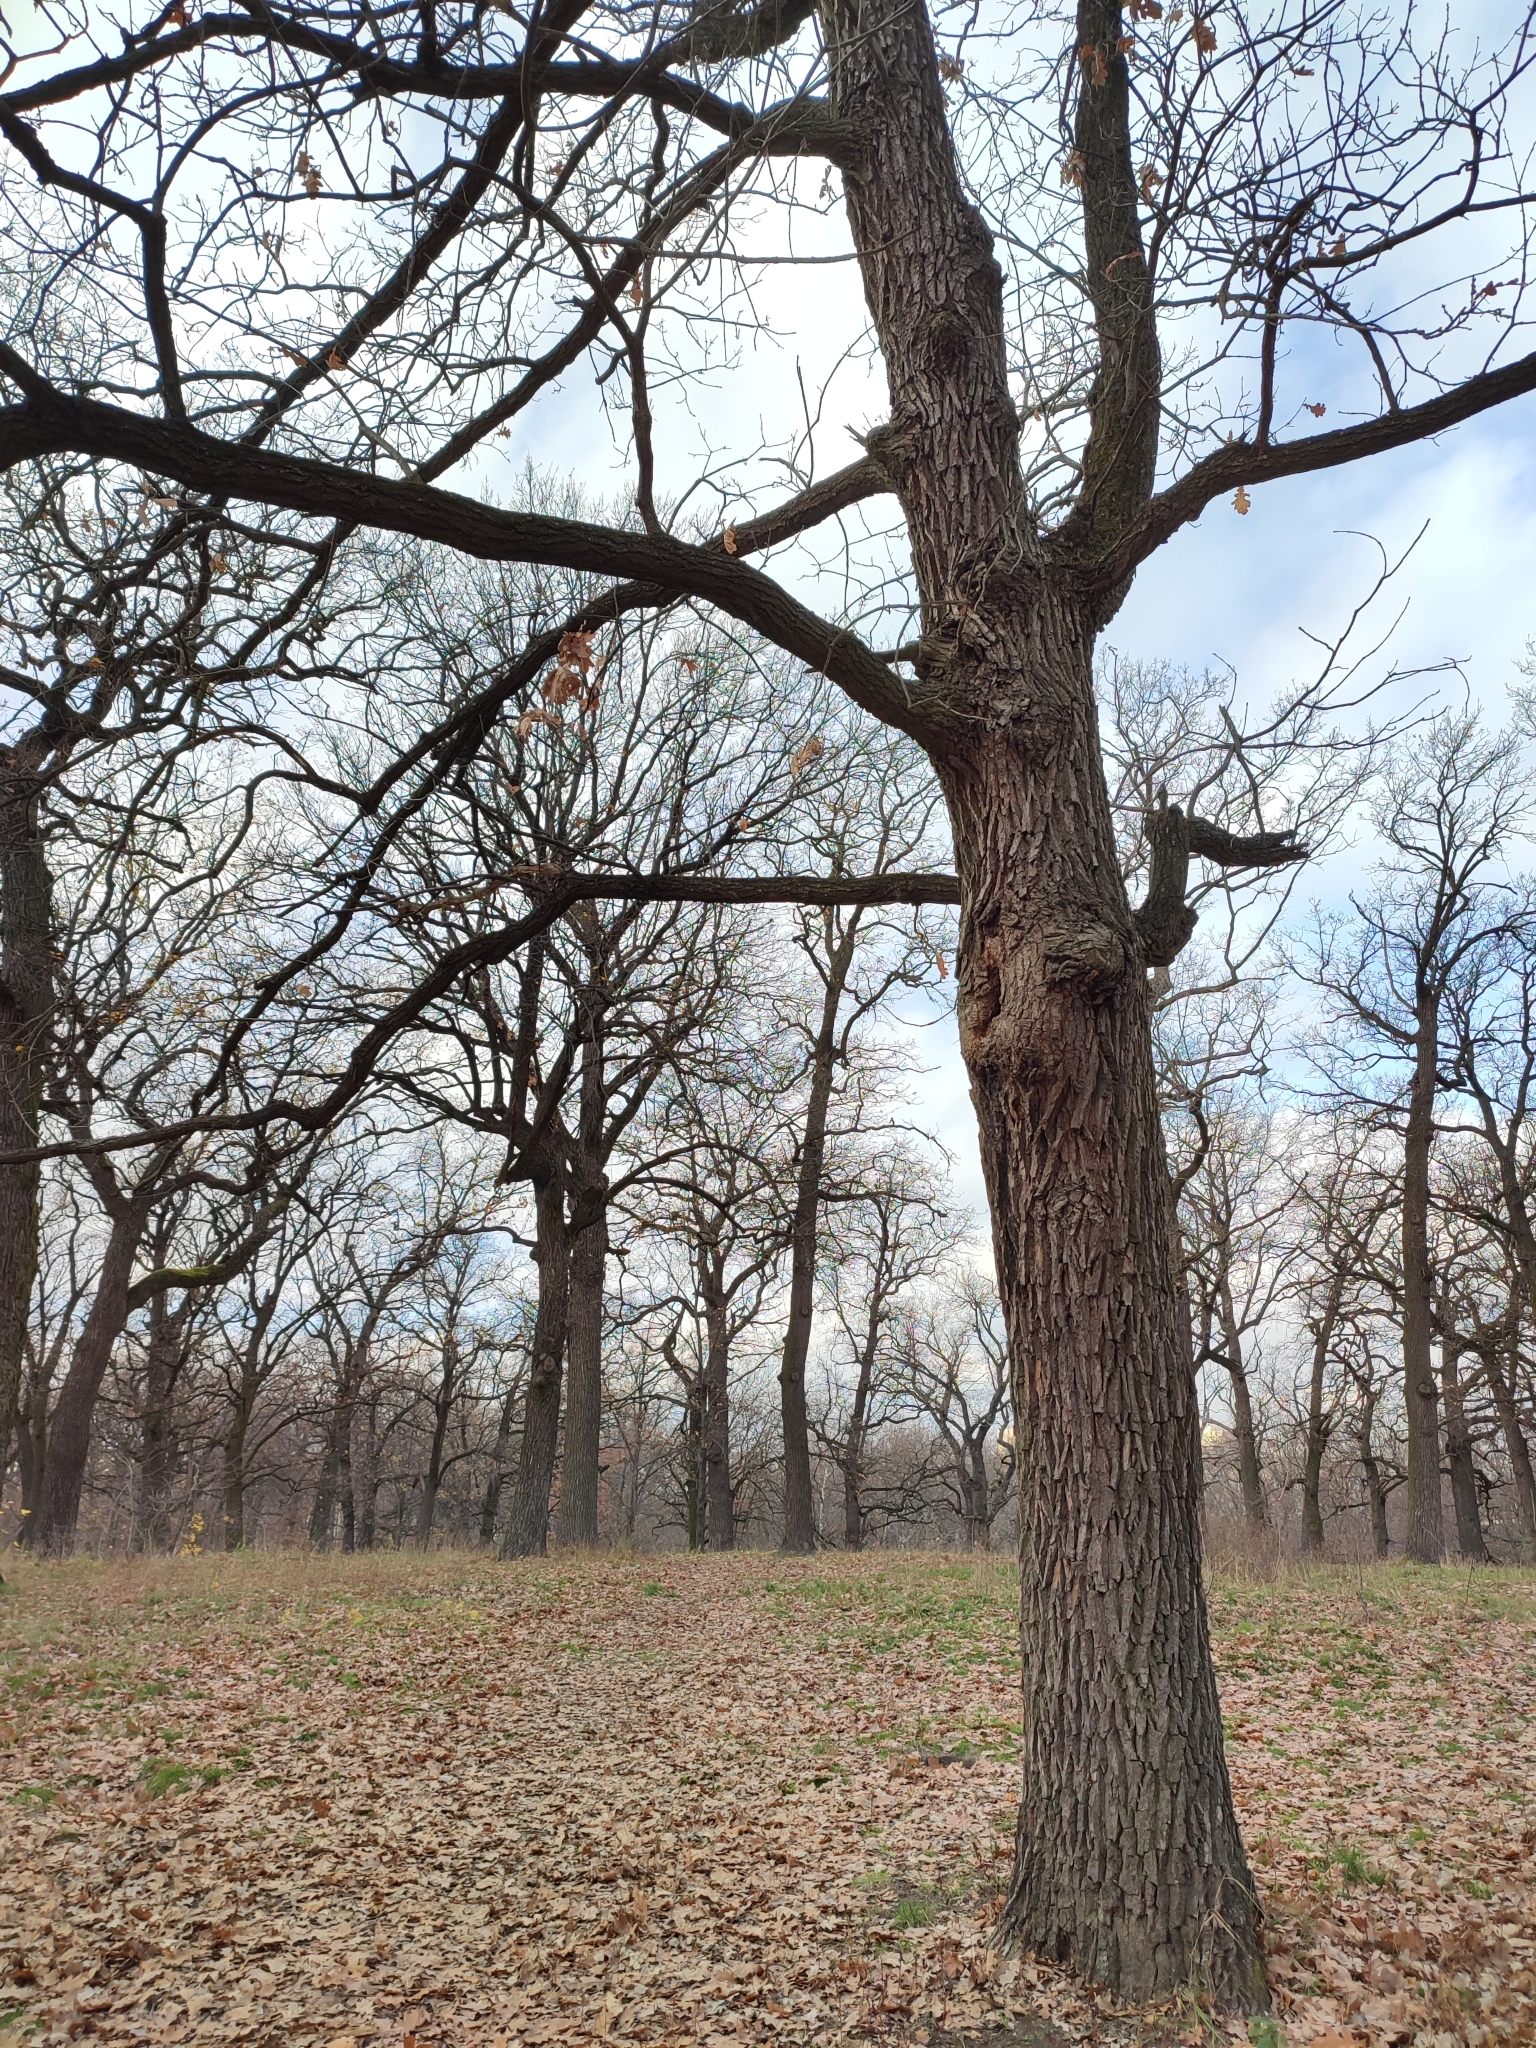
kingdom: Plantae
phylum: Tracheophyta
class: Magnoliopsida
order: Fagales
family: Fagaceae
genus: Quercus
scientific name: Quercus robur
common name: Pedunculate oak
